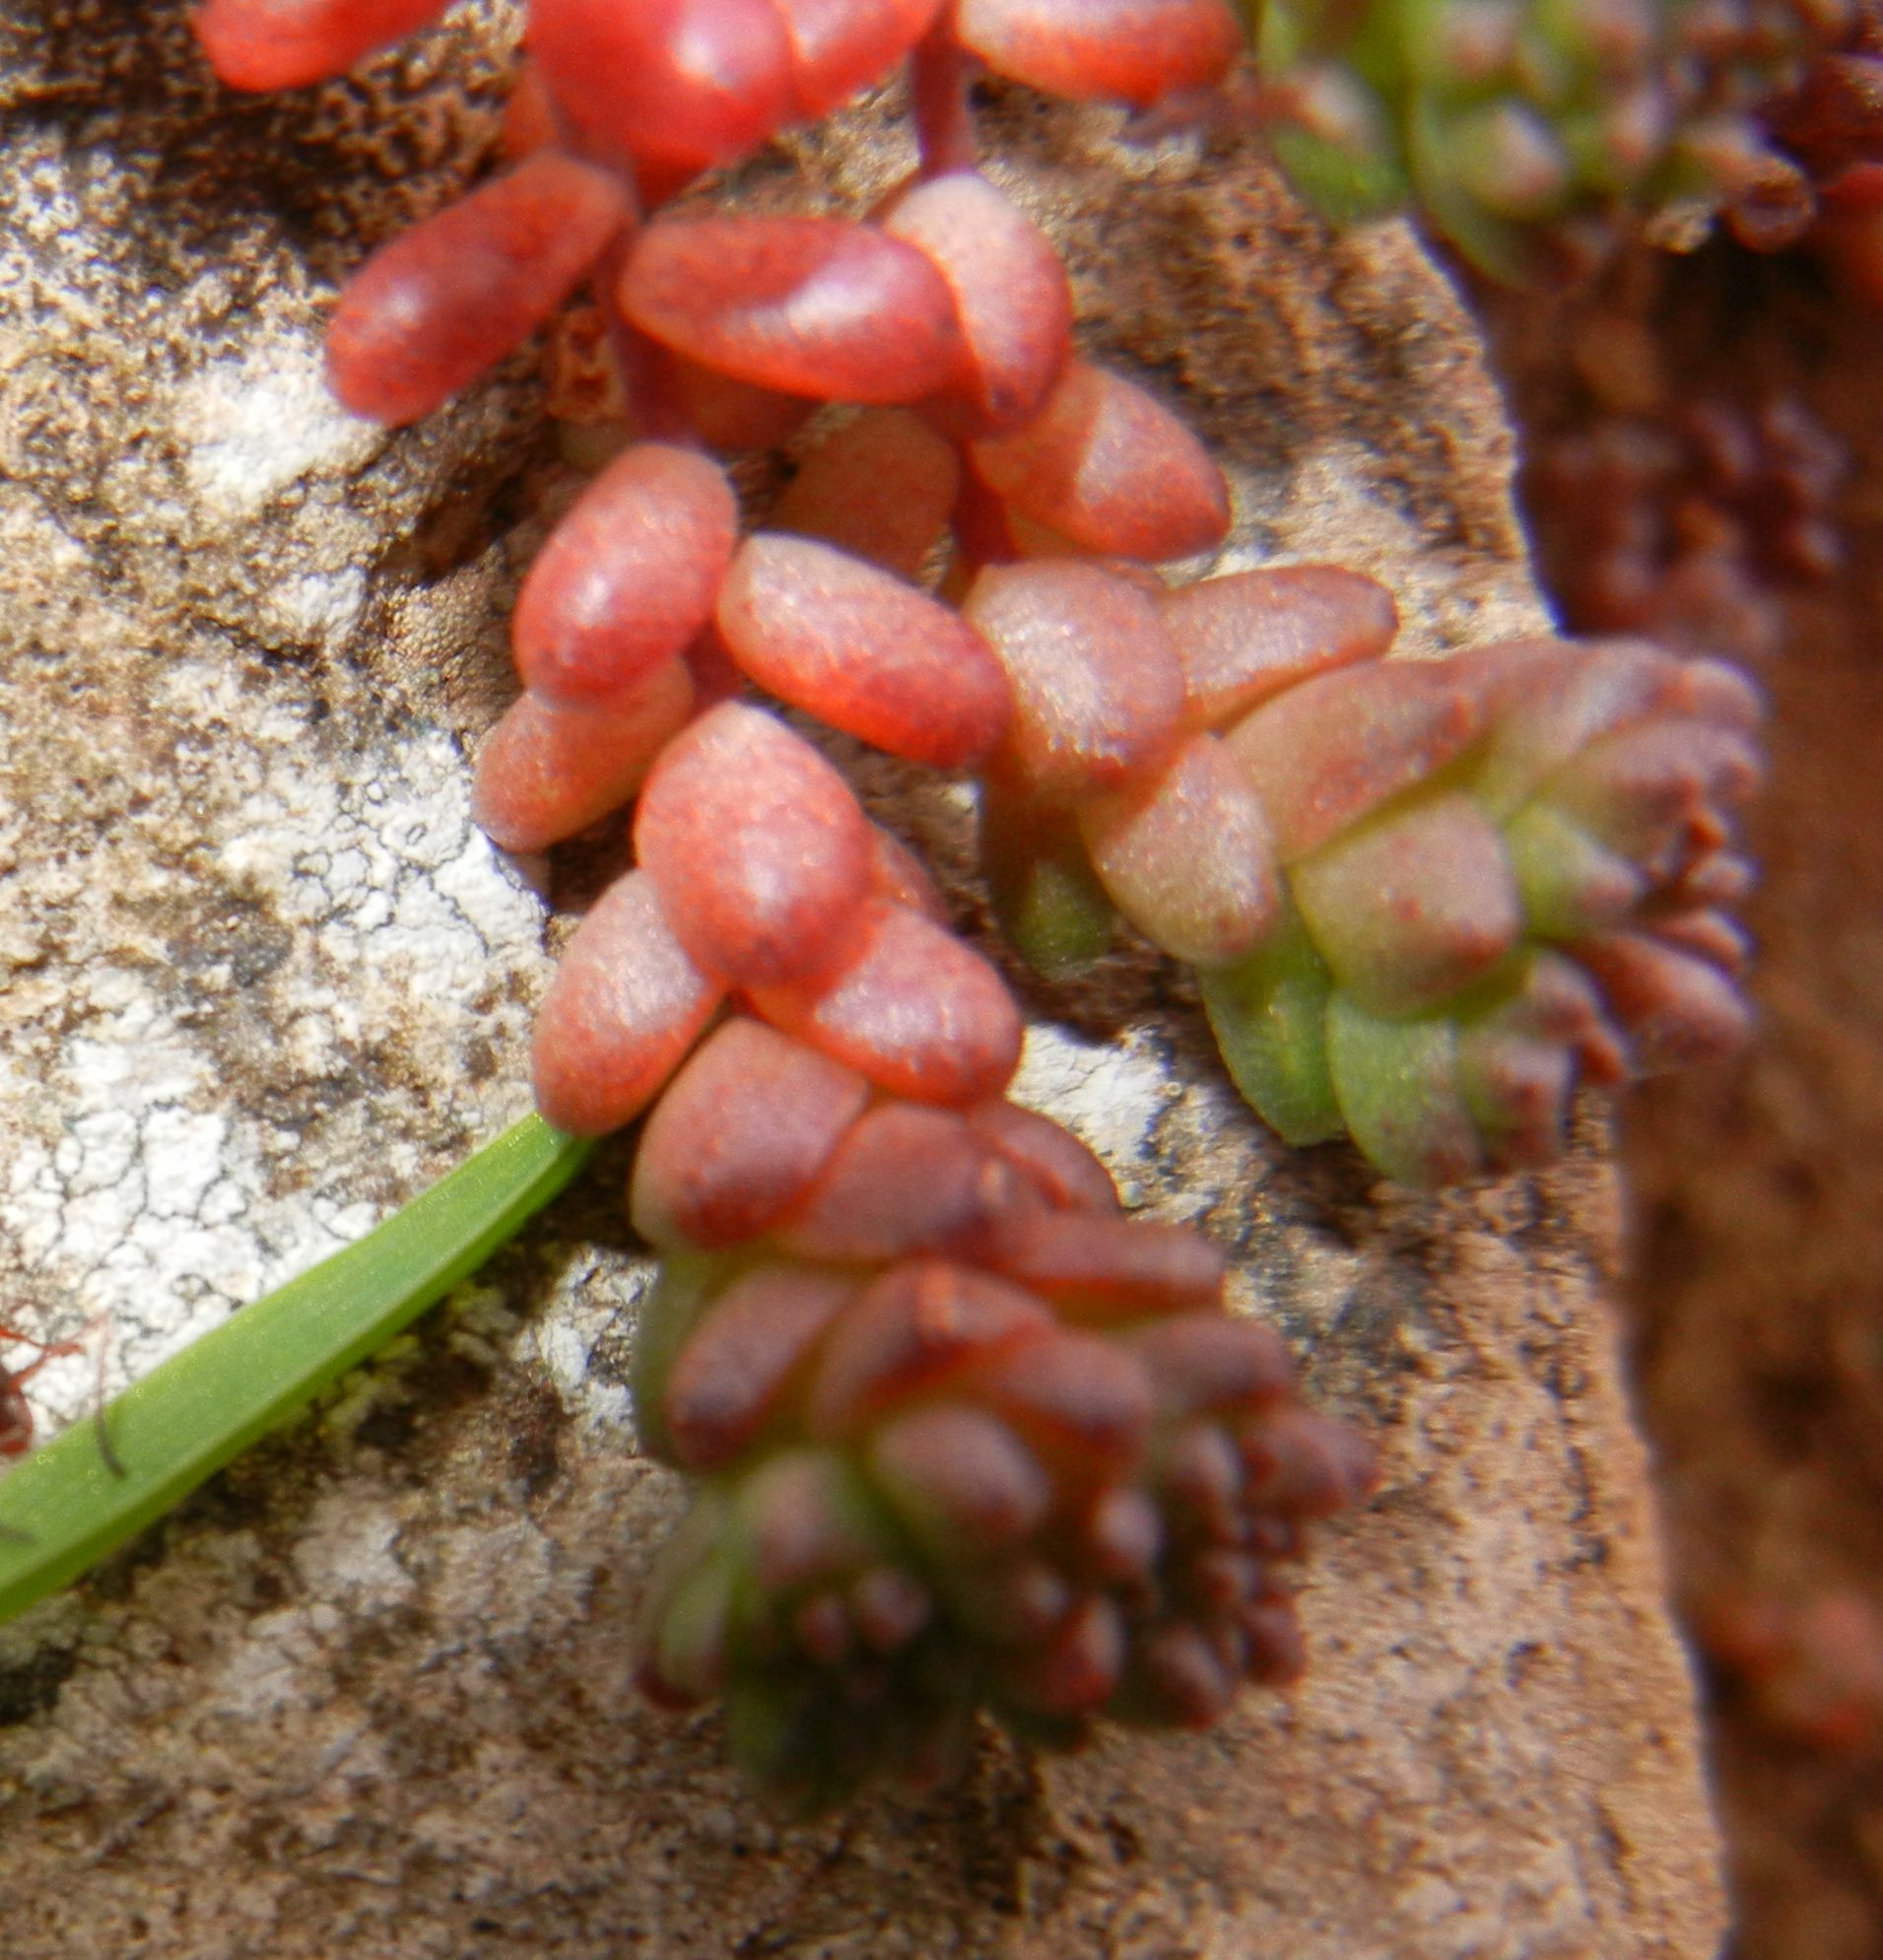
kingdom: Plantae
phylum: Tracheophyta
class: Magnoliopsida
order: Saxifragales
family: Crassulaceae
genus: Sedum
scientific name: Sedum anglicum
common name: English stonecrop
